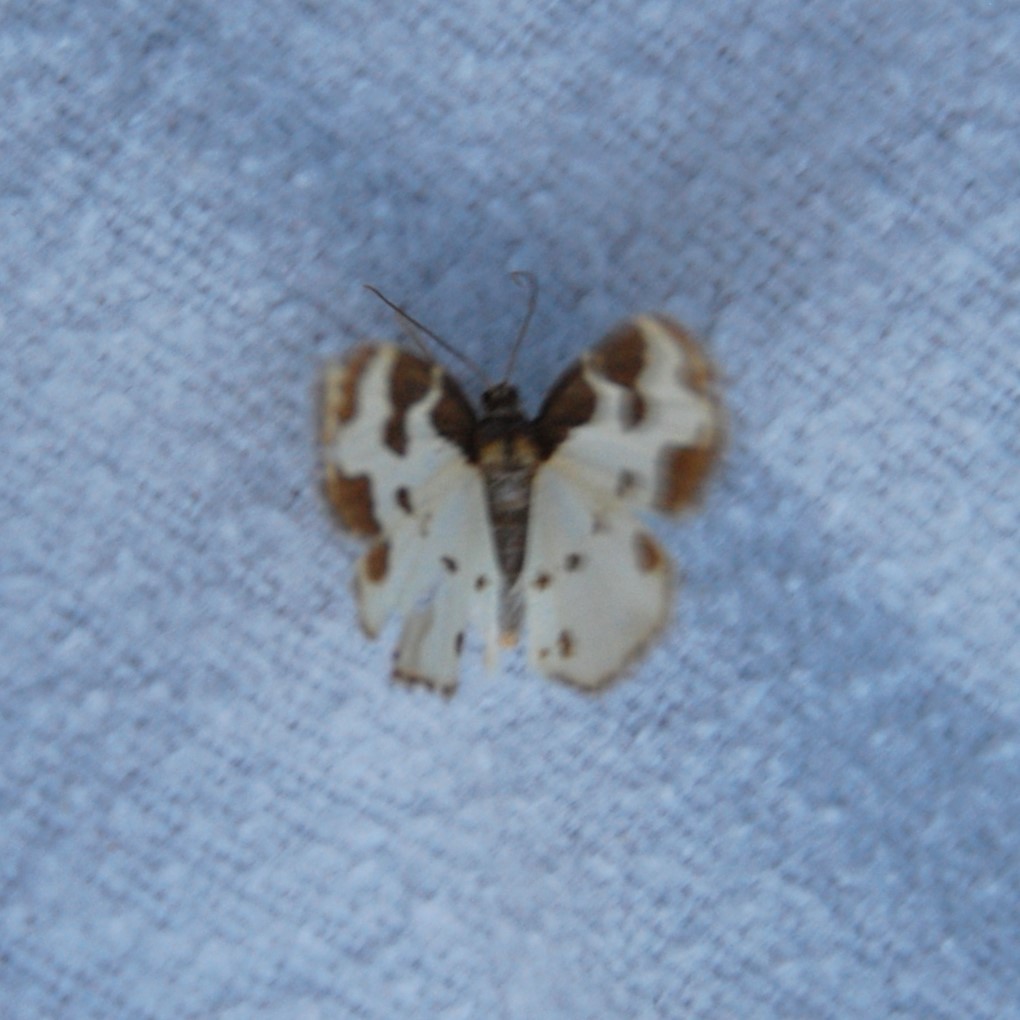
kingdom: Animalia
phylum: Arthropoda
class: Insecta
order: Lepidoptera
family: Geometridae
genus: Lomaspilis
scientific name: Lomaspilis marginata
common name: Clouded border
